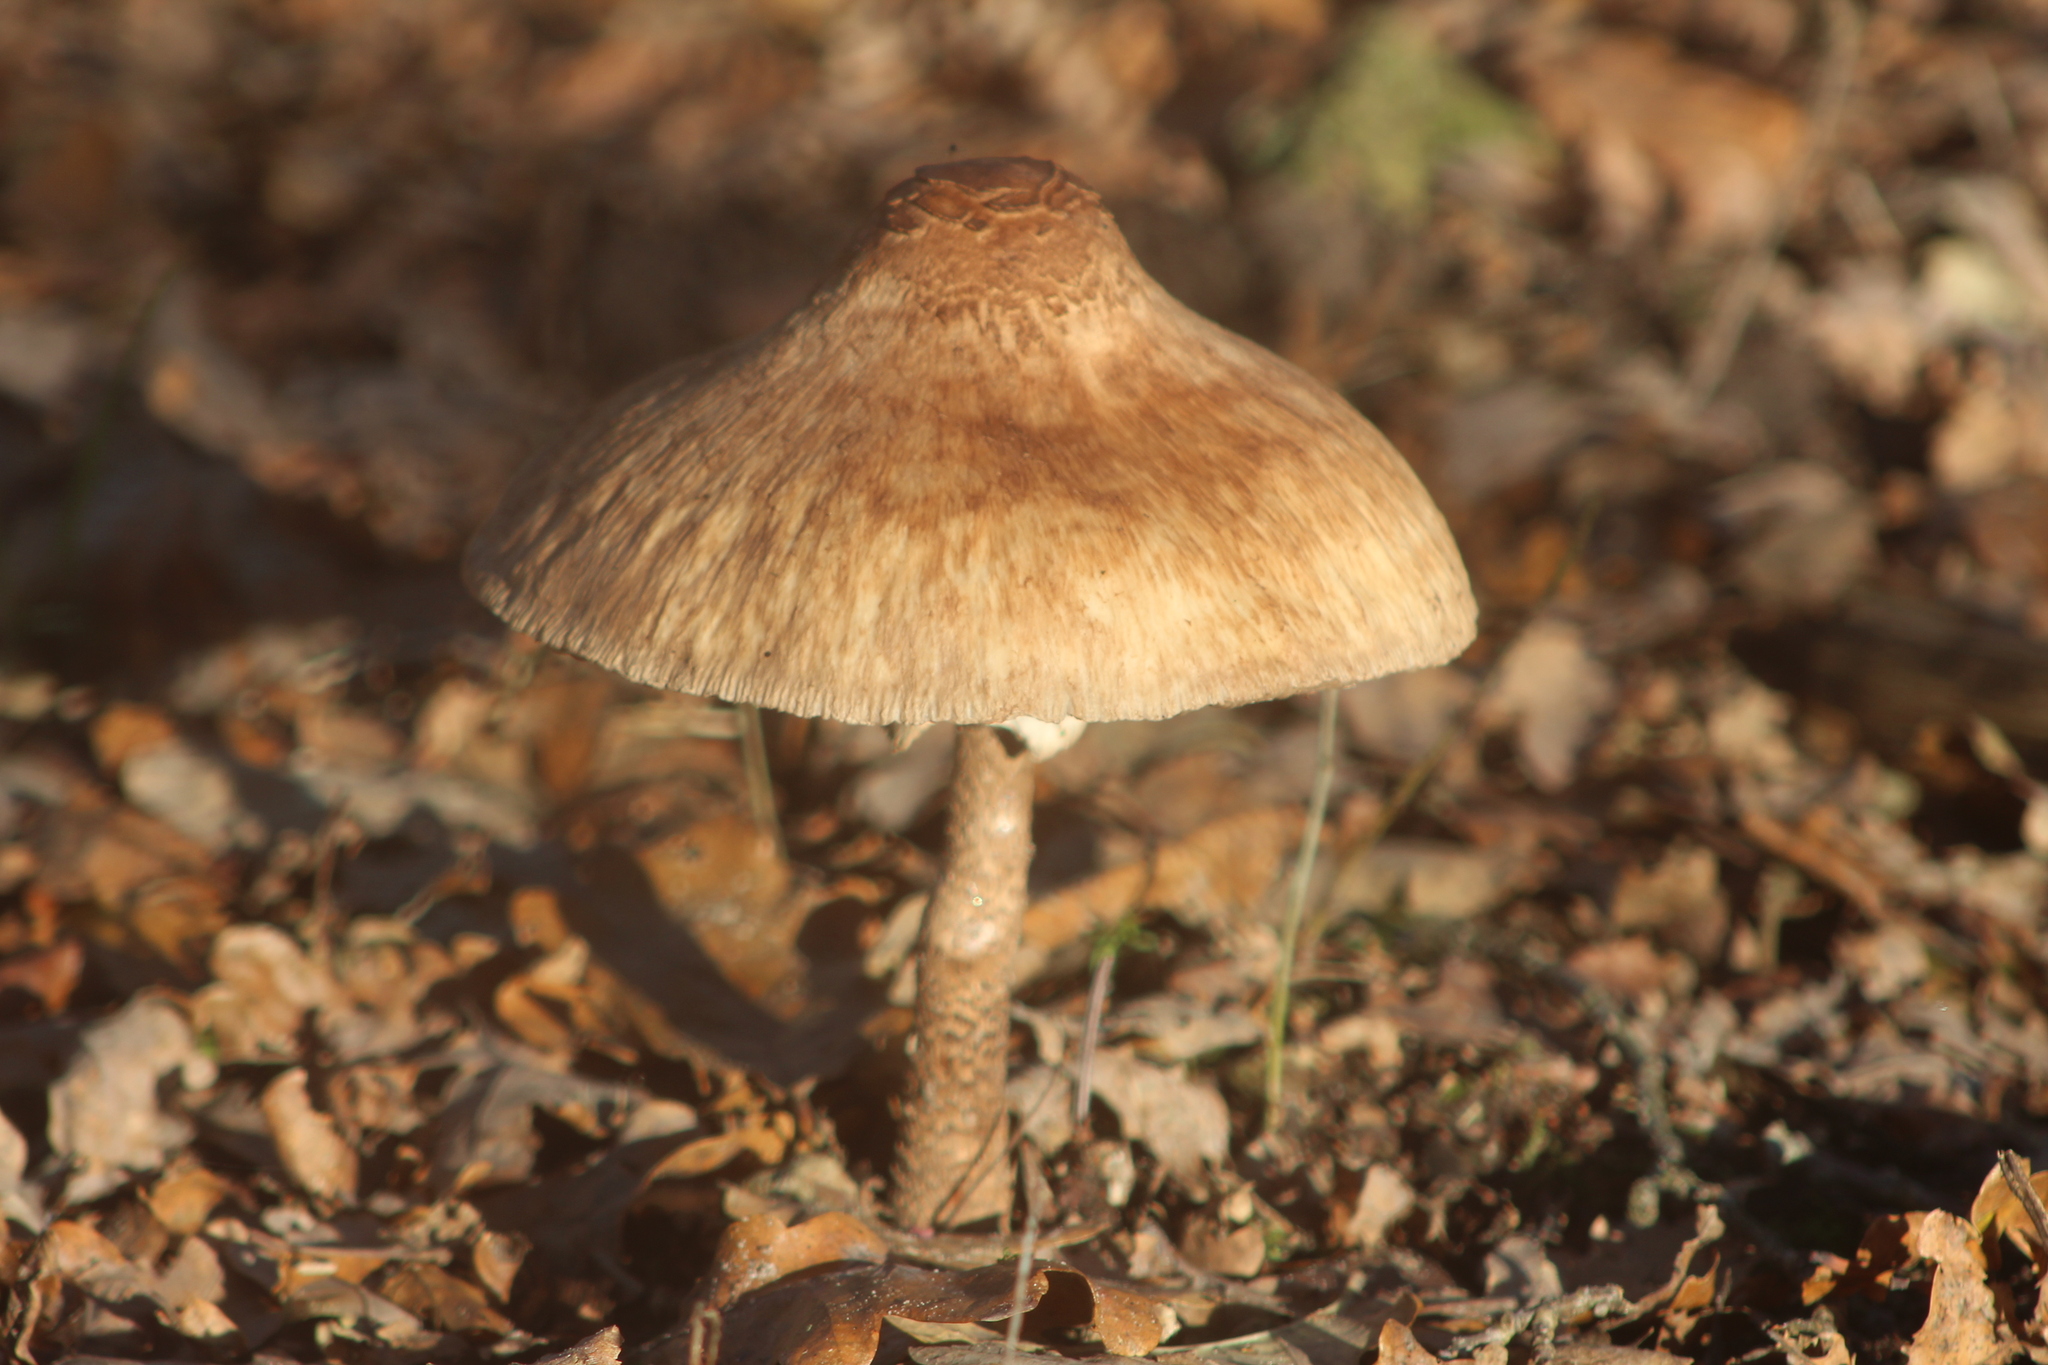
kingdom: Fungi
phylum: Basidiomycota
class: Agaricomycetes
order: Agaricales
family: Agaricaceae
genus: Macrolepiota
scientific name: Macrolepiota procera
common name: Parasol
